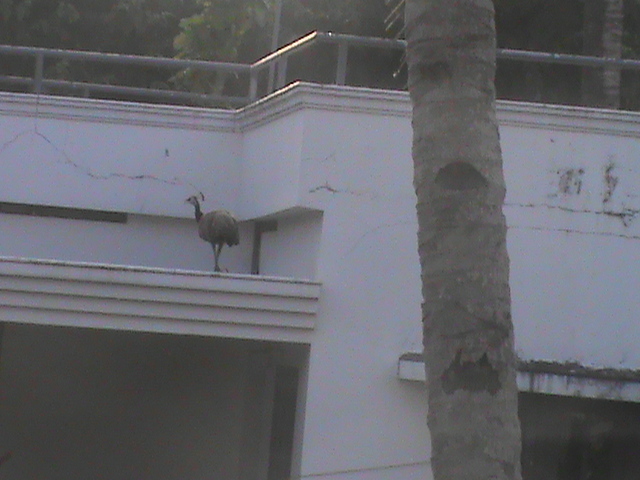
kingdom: Animalia
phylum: Chordata
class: Aves
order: Galliformes
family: Phasianidae
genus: Pavo
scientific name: Pavo cristatus
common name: Indian peafowl
